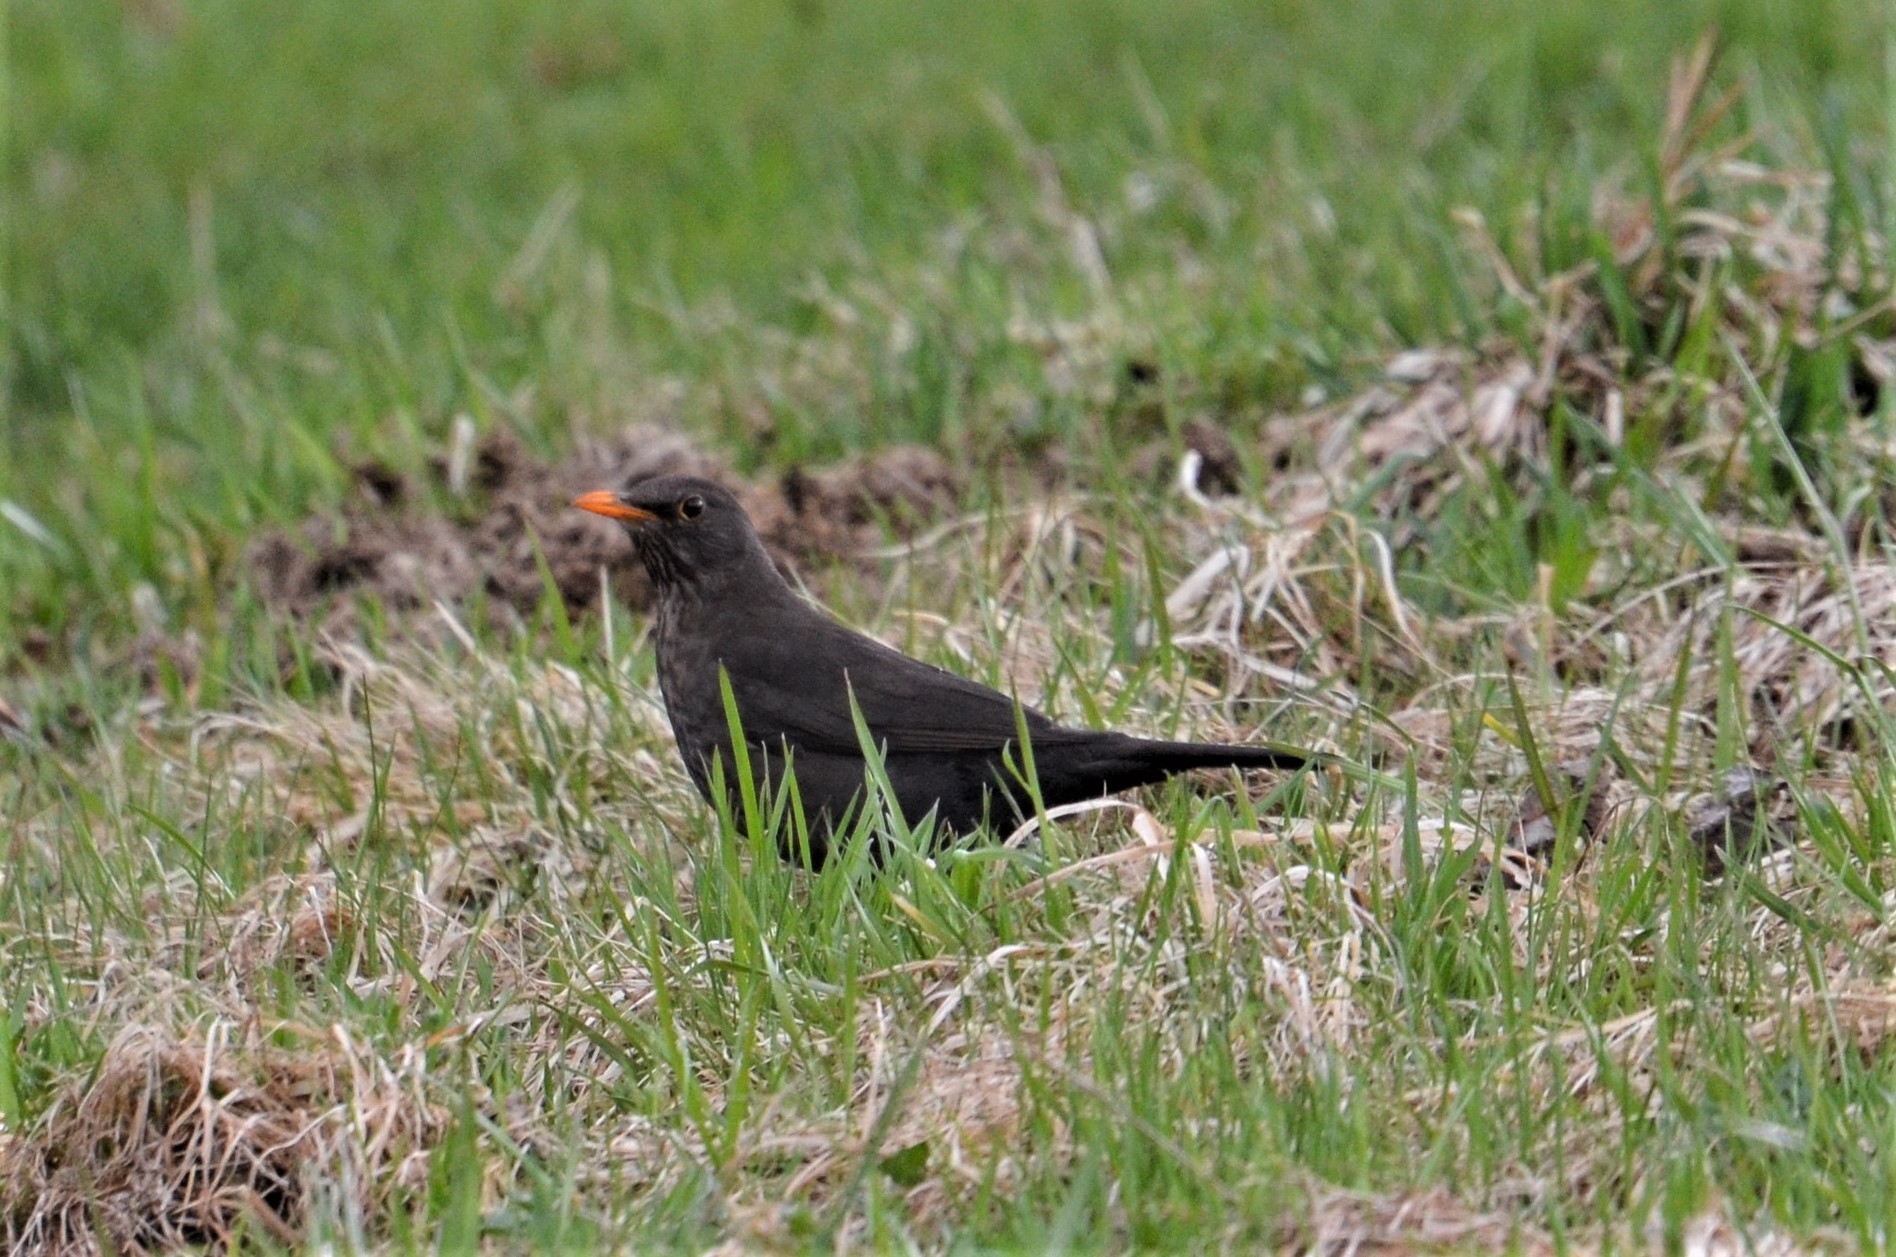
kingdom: Animalia
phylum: Chordata
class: Aves
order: Passeriformes
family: Turdidae
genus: Turdus
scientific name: Turdus merula
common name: Common blackbird
